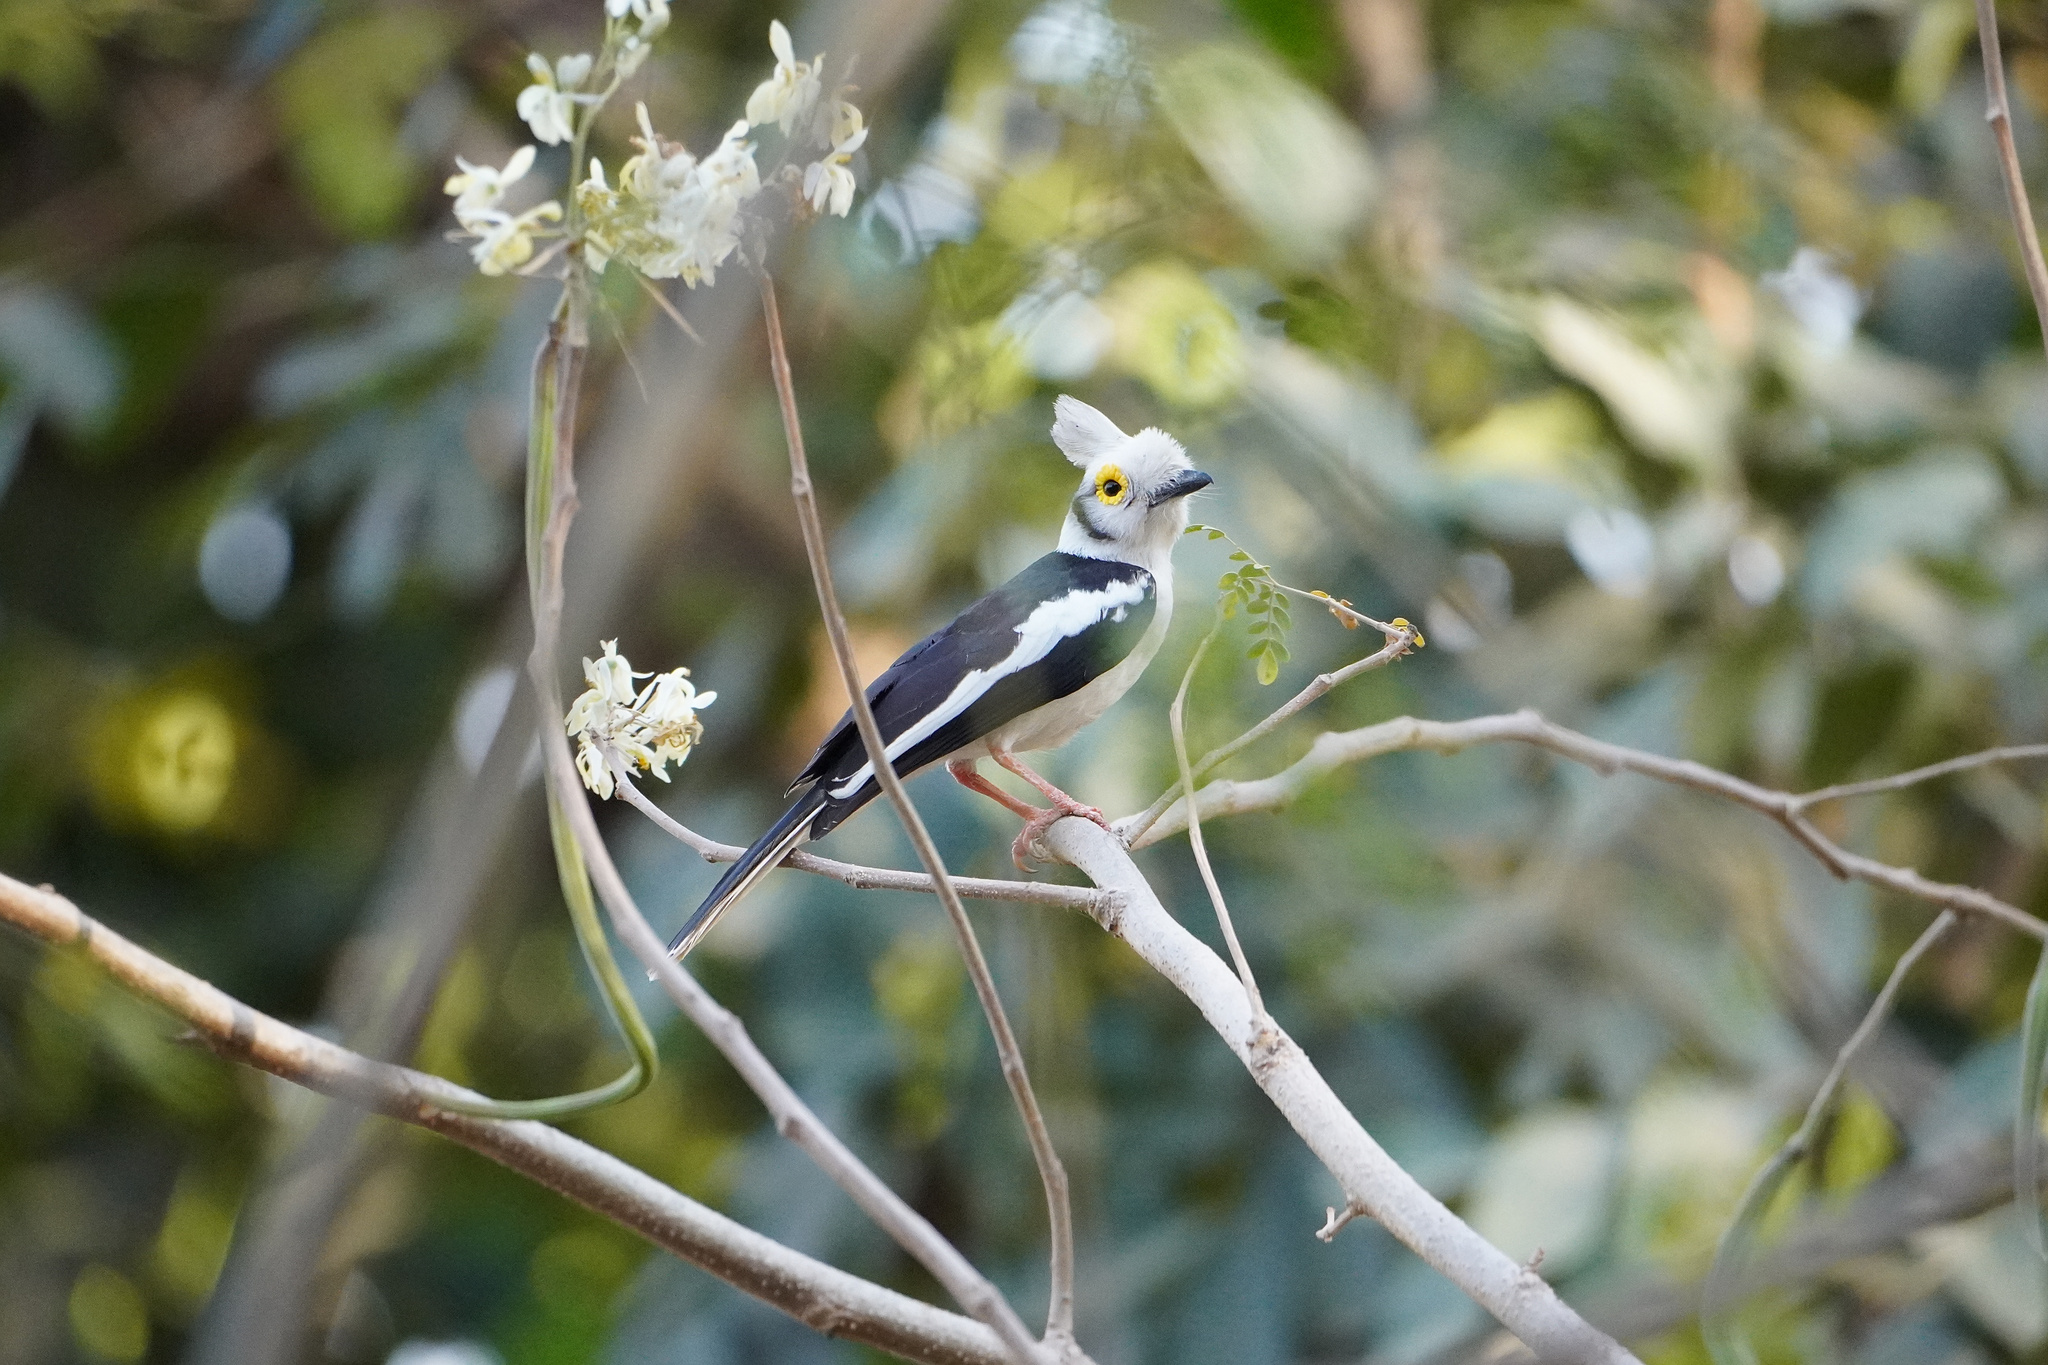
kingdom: Animalia
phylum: Chordata
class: Aves
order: Passeriformes
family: Prionopidae
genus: Prionops
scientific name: Prionops plumatus
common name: White-crested helmetshrike
